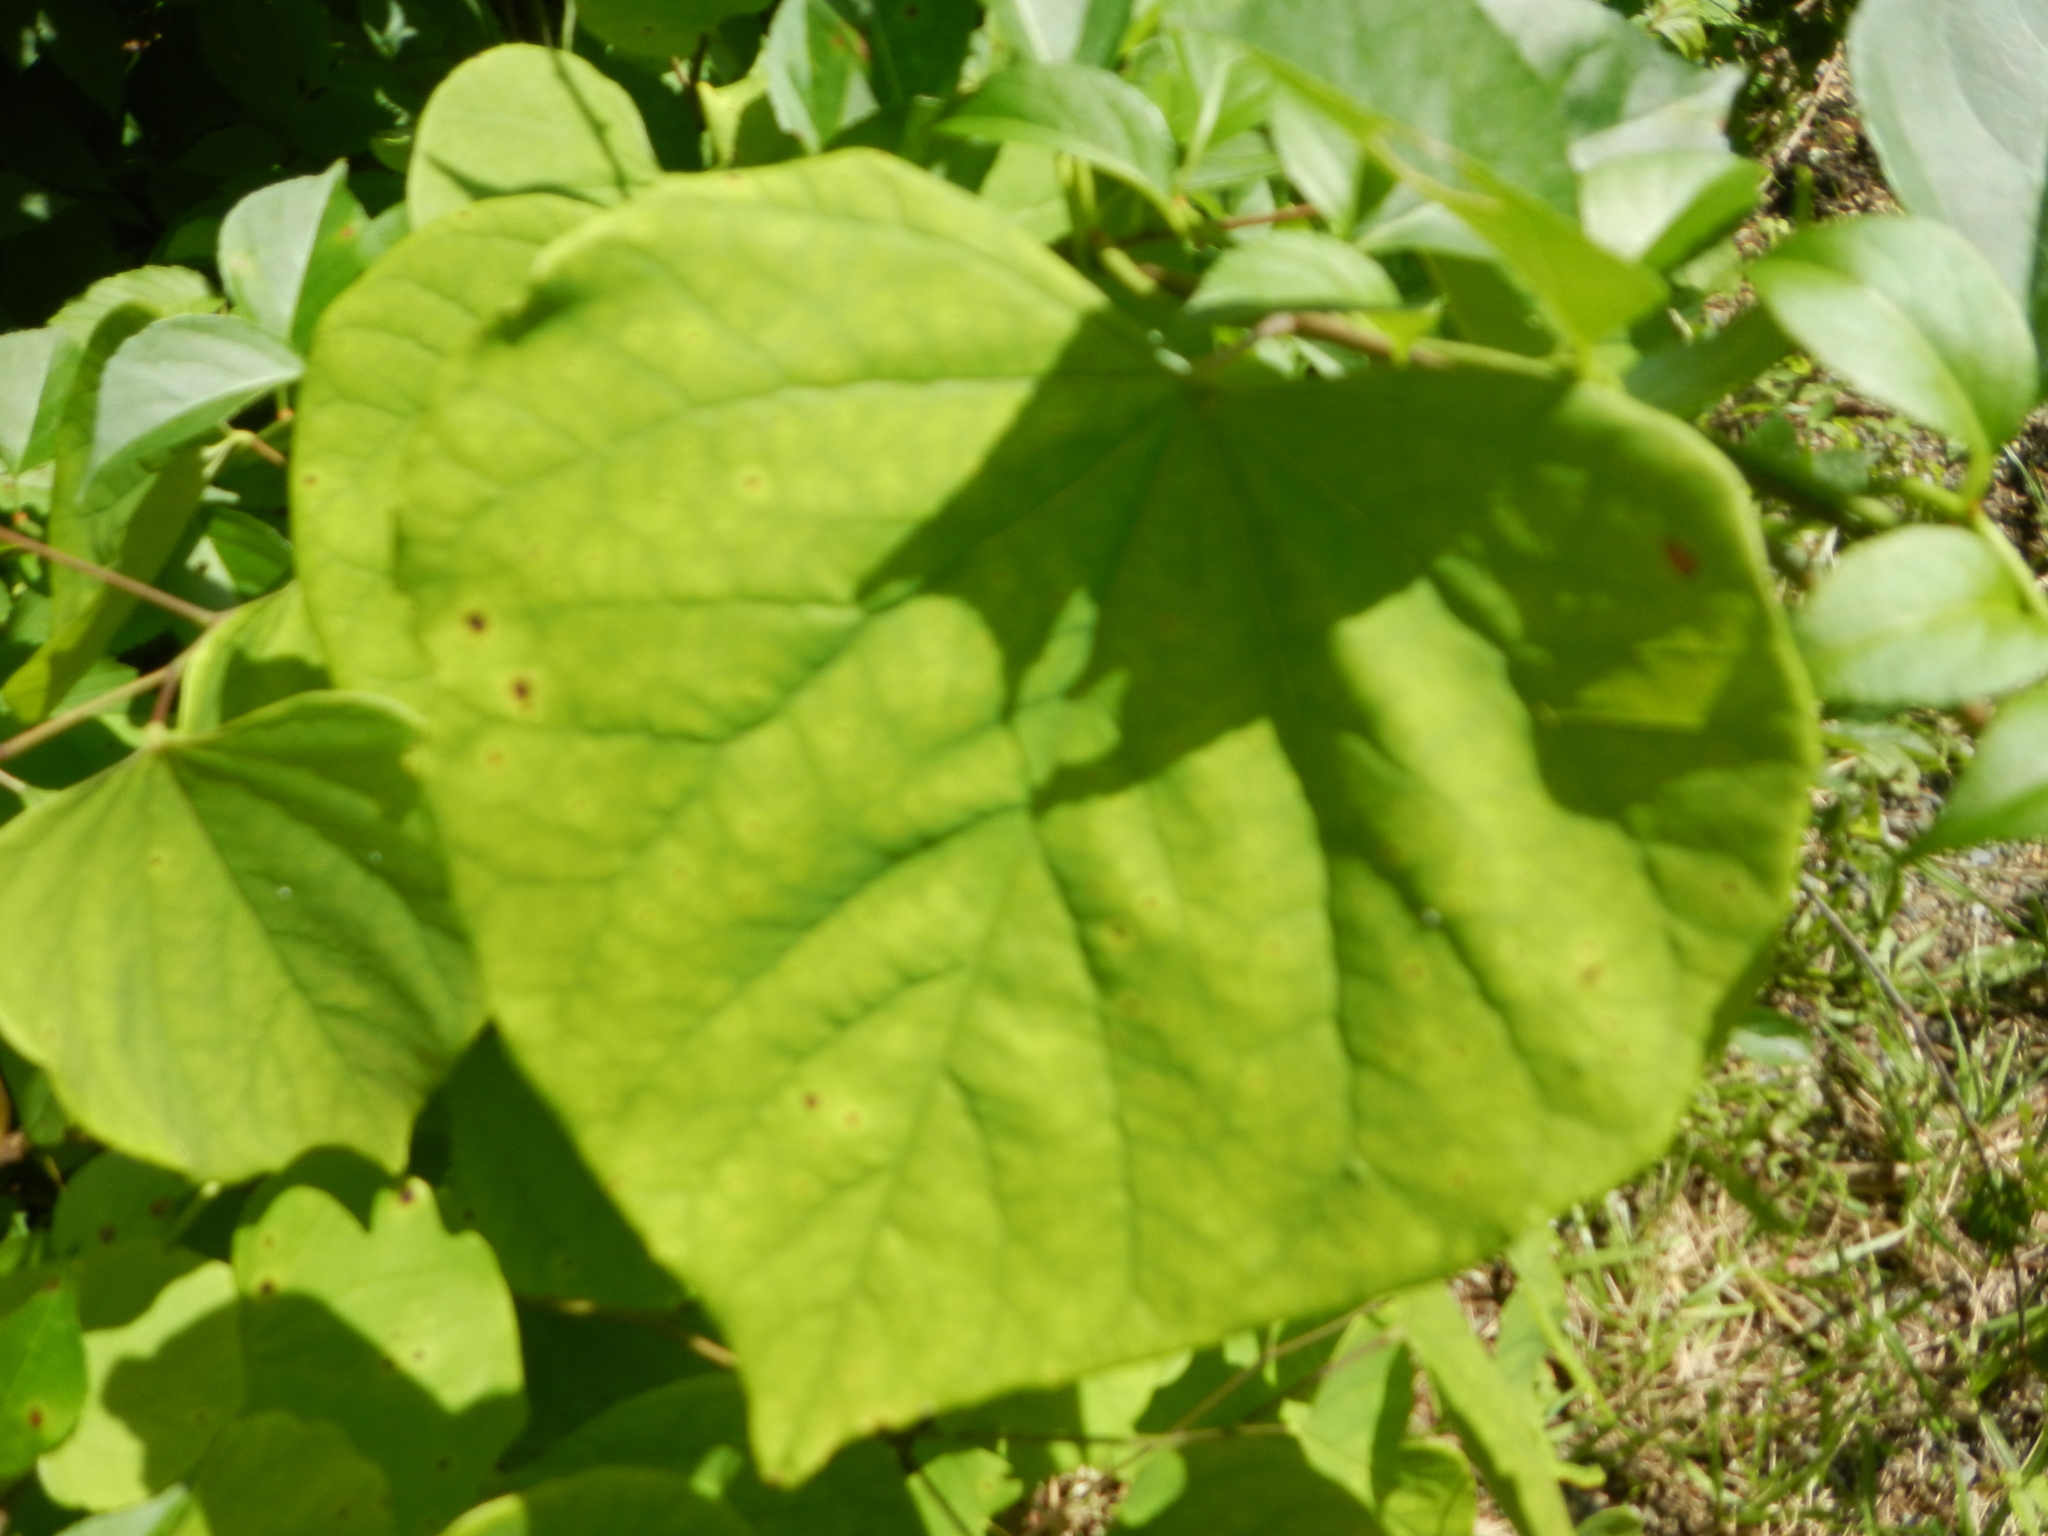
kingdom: Plantae
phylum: Tracheophyta
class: Magnoliopsida
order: Fabales
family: Fabaceae
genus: Cercis
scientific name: Cercis canadensis
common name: Eastern redbud
